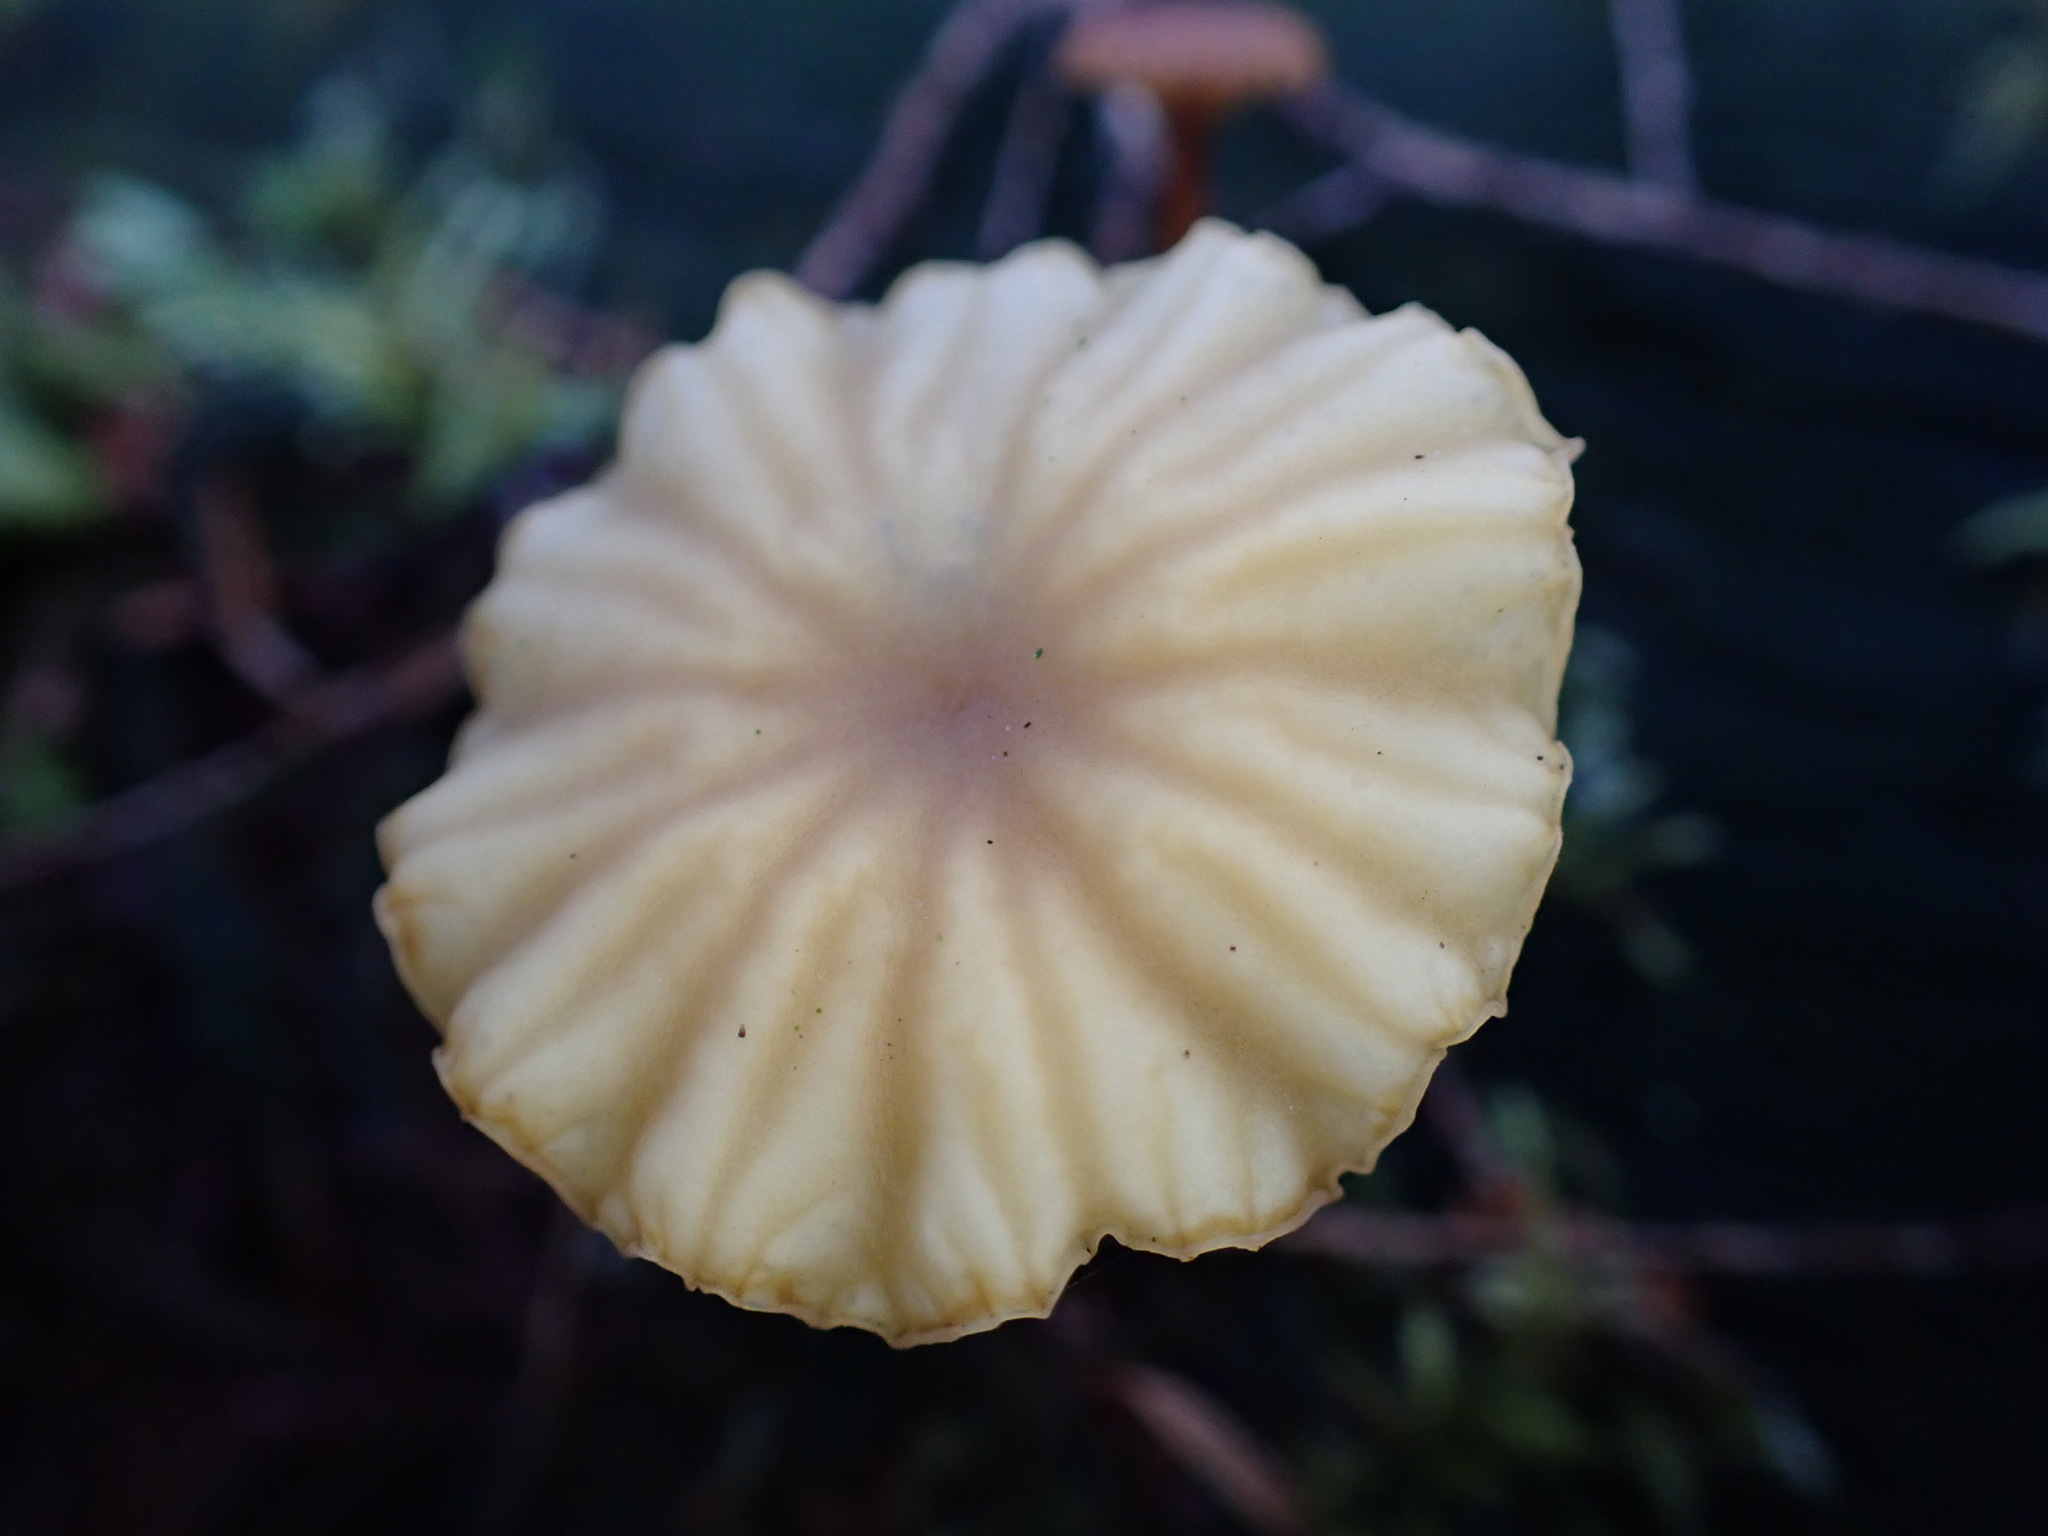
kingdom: Fungi
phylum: Basidiomycota
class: Agaricomycetes
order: Agaricales
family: Hygrophoraceae
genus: Lichenomphalia
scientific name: Lichenomphalia
